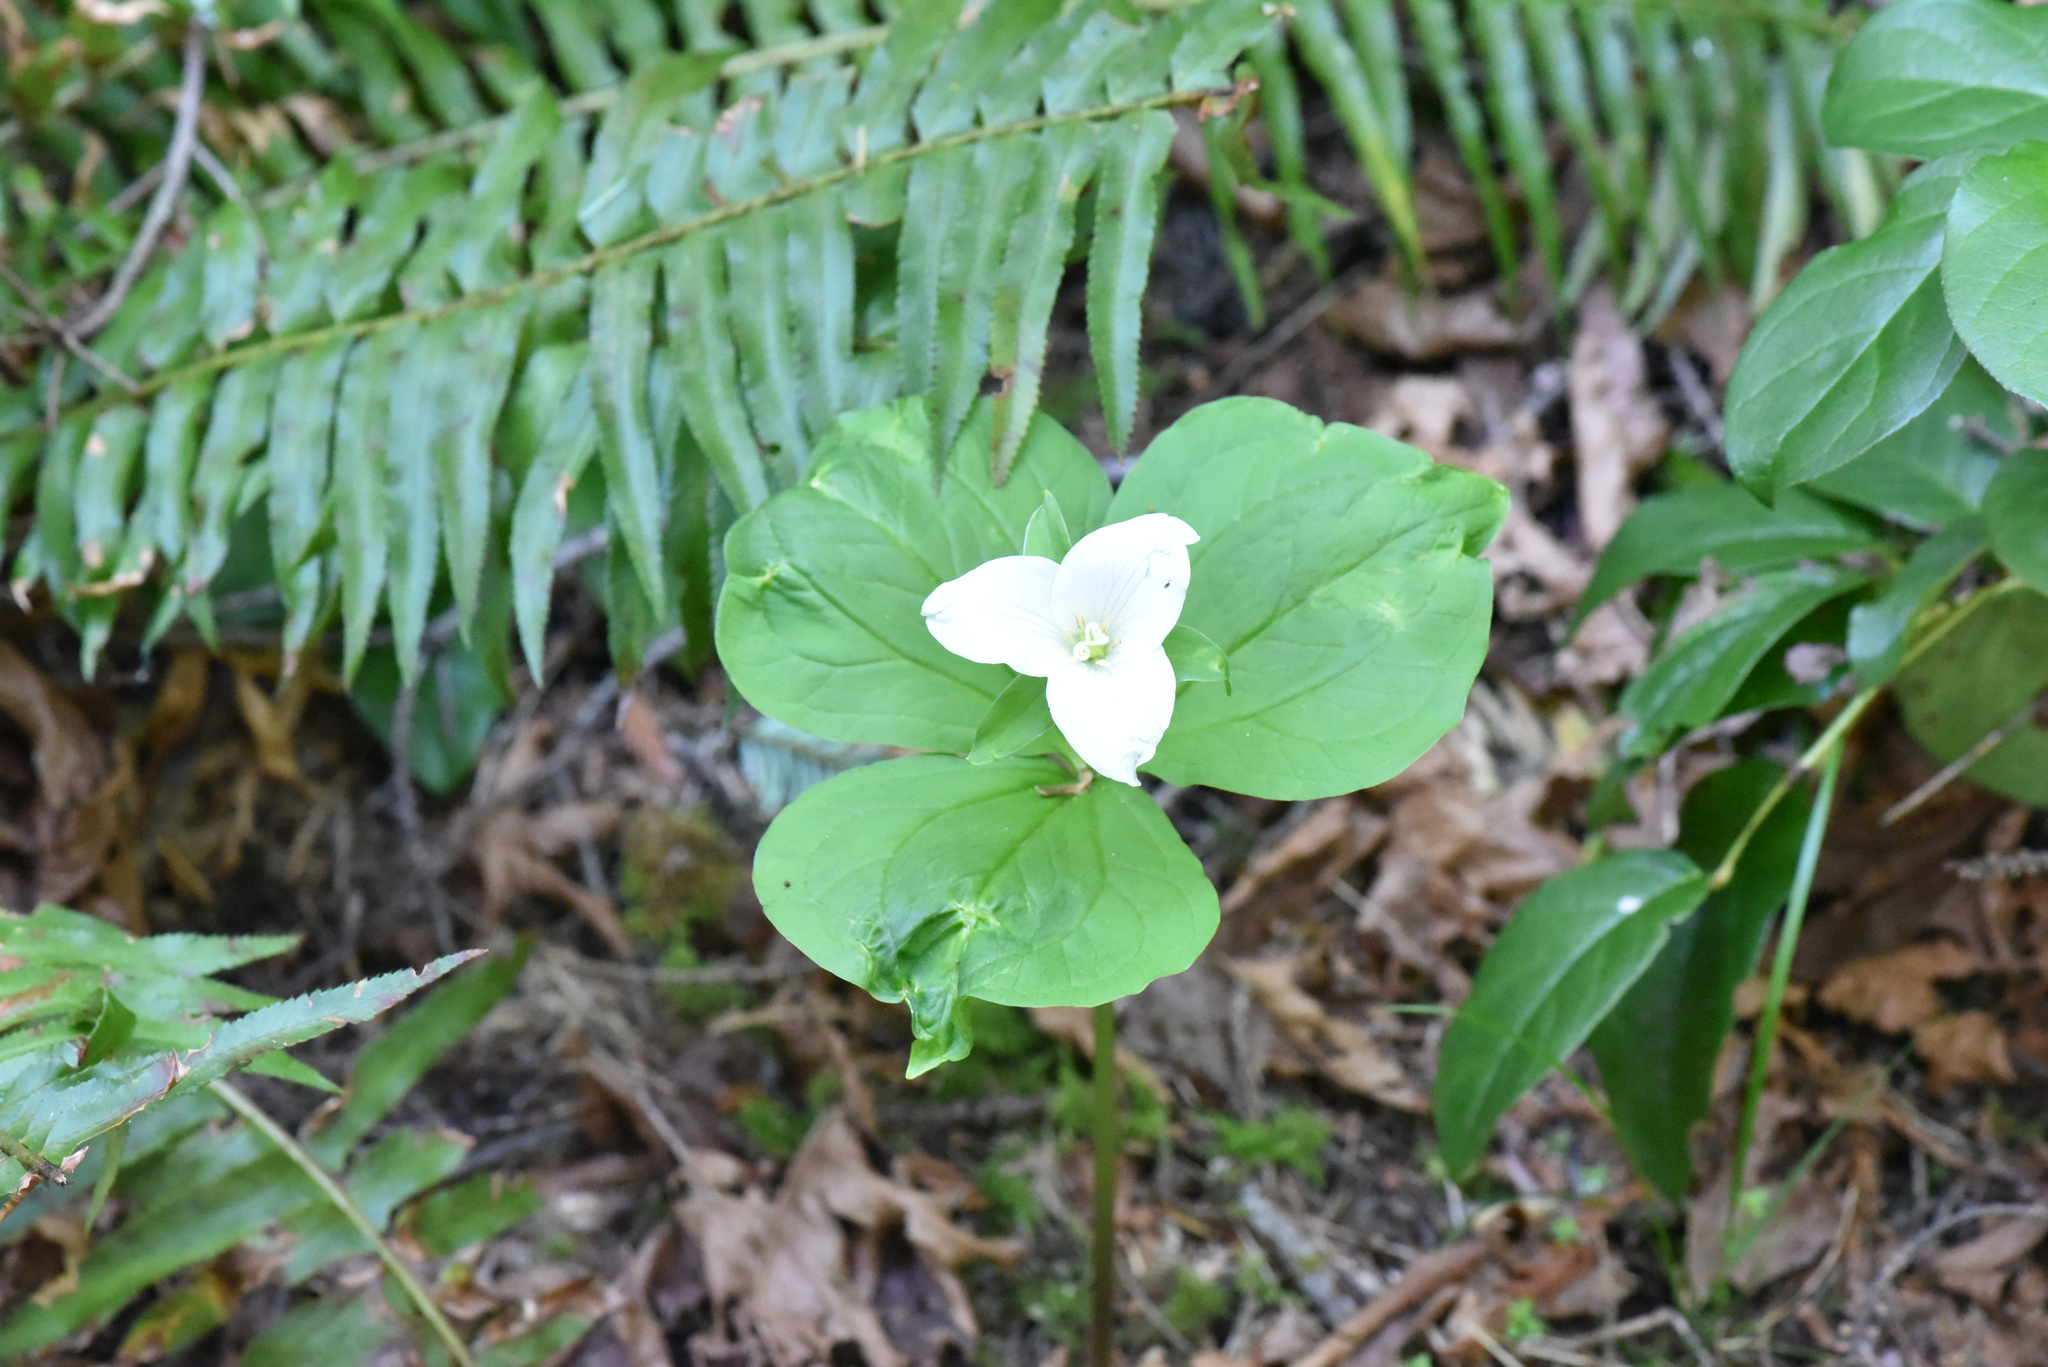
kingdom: Plantae
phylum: Tracheophyta
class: Liliopsida
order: Liliales
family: Melanthiaceae
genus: Trillium
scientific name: Trillium ovatum
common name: Pacific trillium
